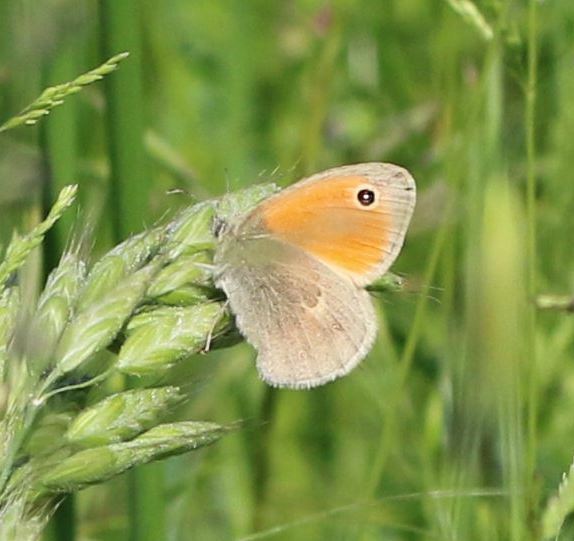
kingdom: Animalia
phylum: Arthropoda
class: Insecta
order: Lepidoptera
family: Nymphalidae
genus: Coenonympha
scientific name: Coenonympha pamphilus
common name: Small heath
